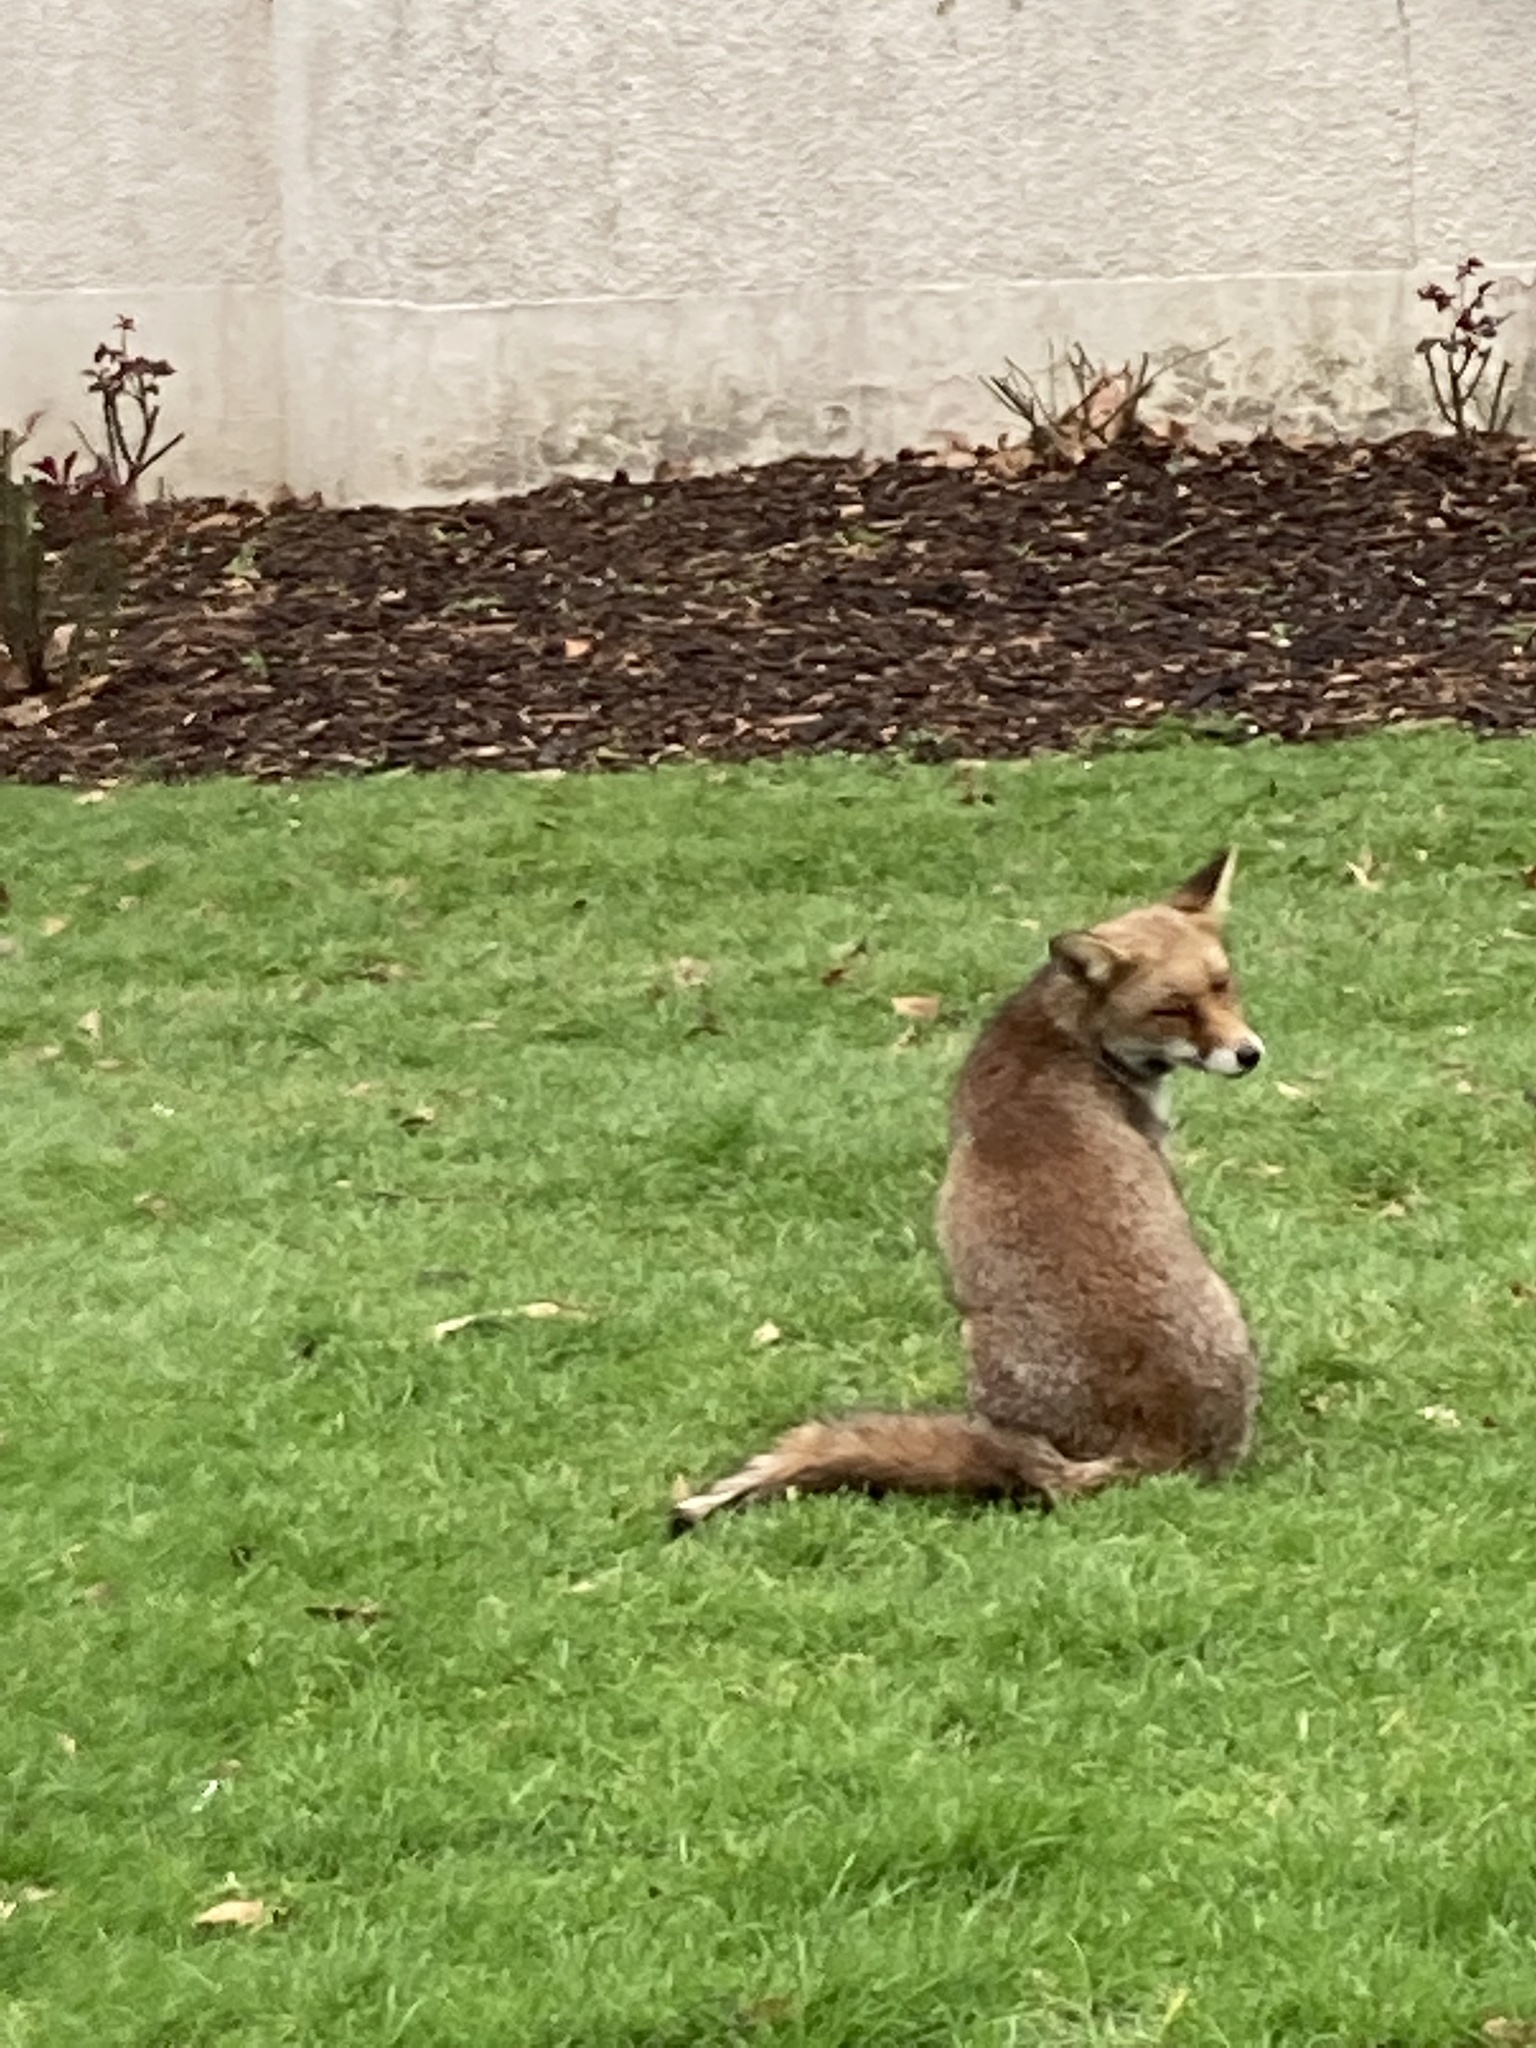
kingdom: Animalia
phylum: Chordata
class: Mammalia
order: Carnivora
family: Canidae
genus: Vulpes
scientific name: Vulpes vulpes
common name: Red fox
